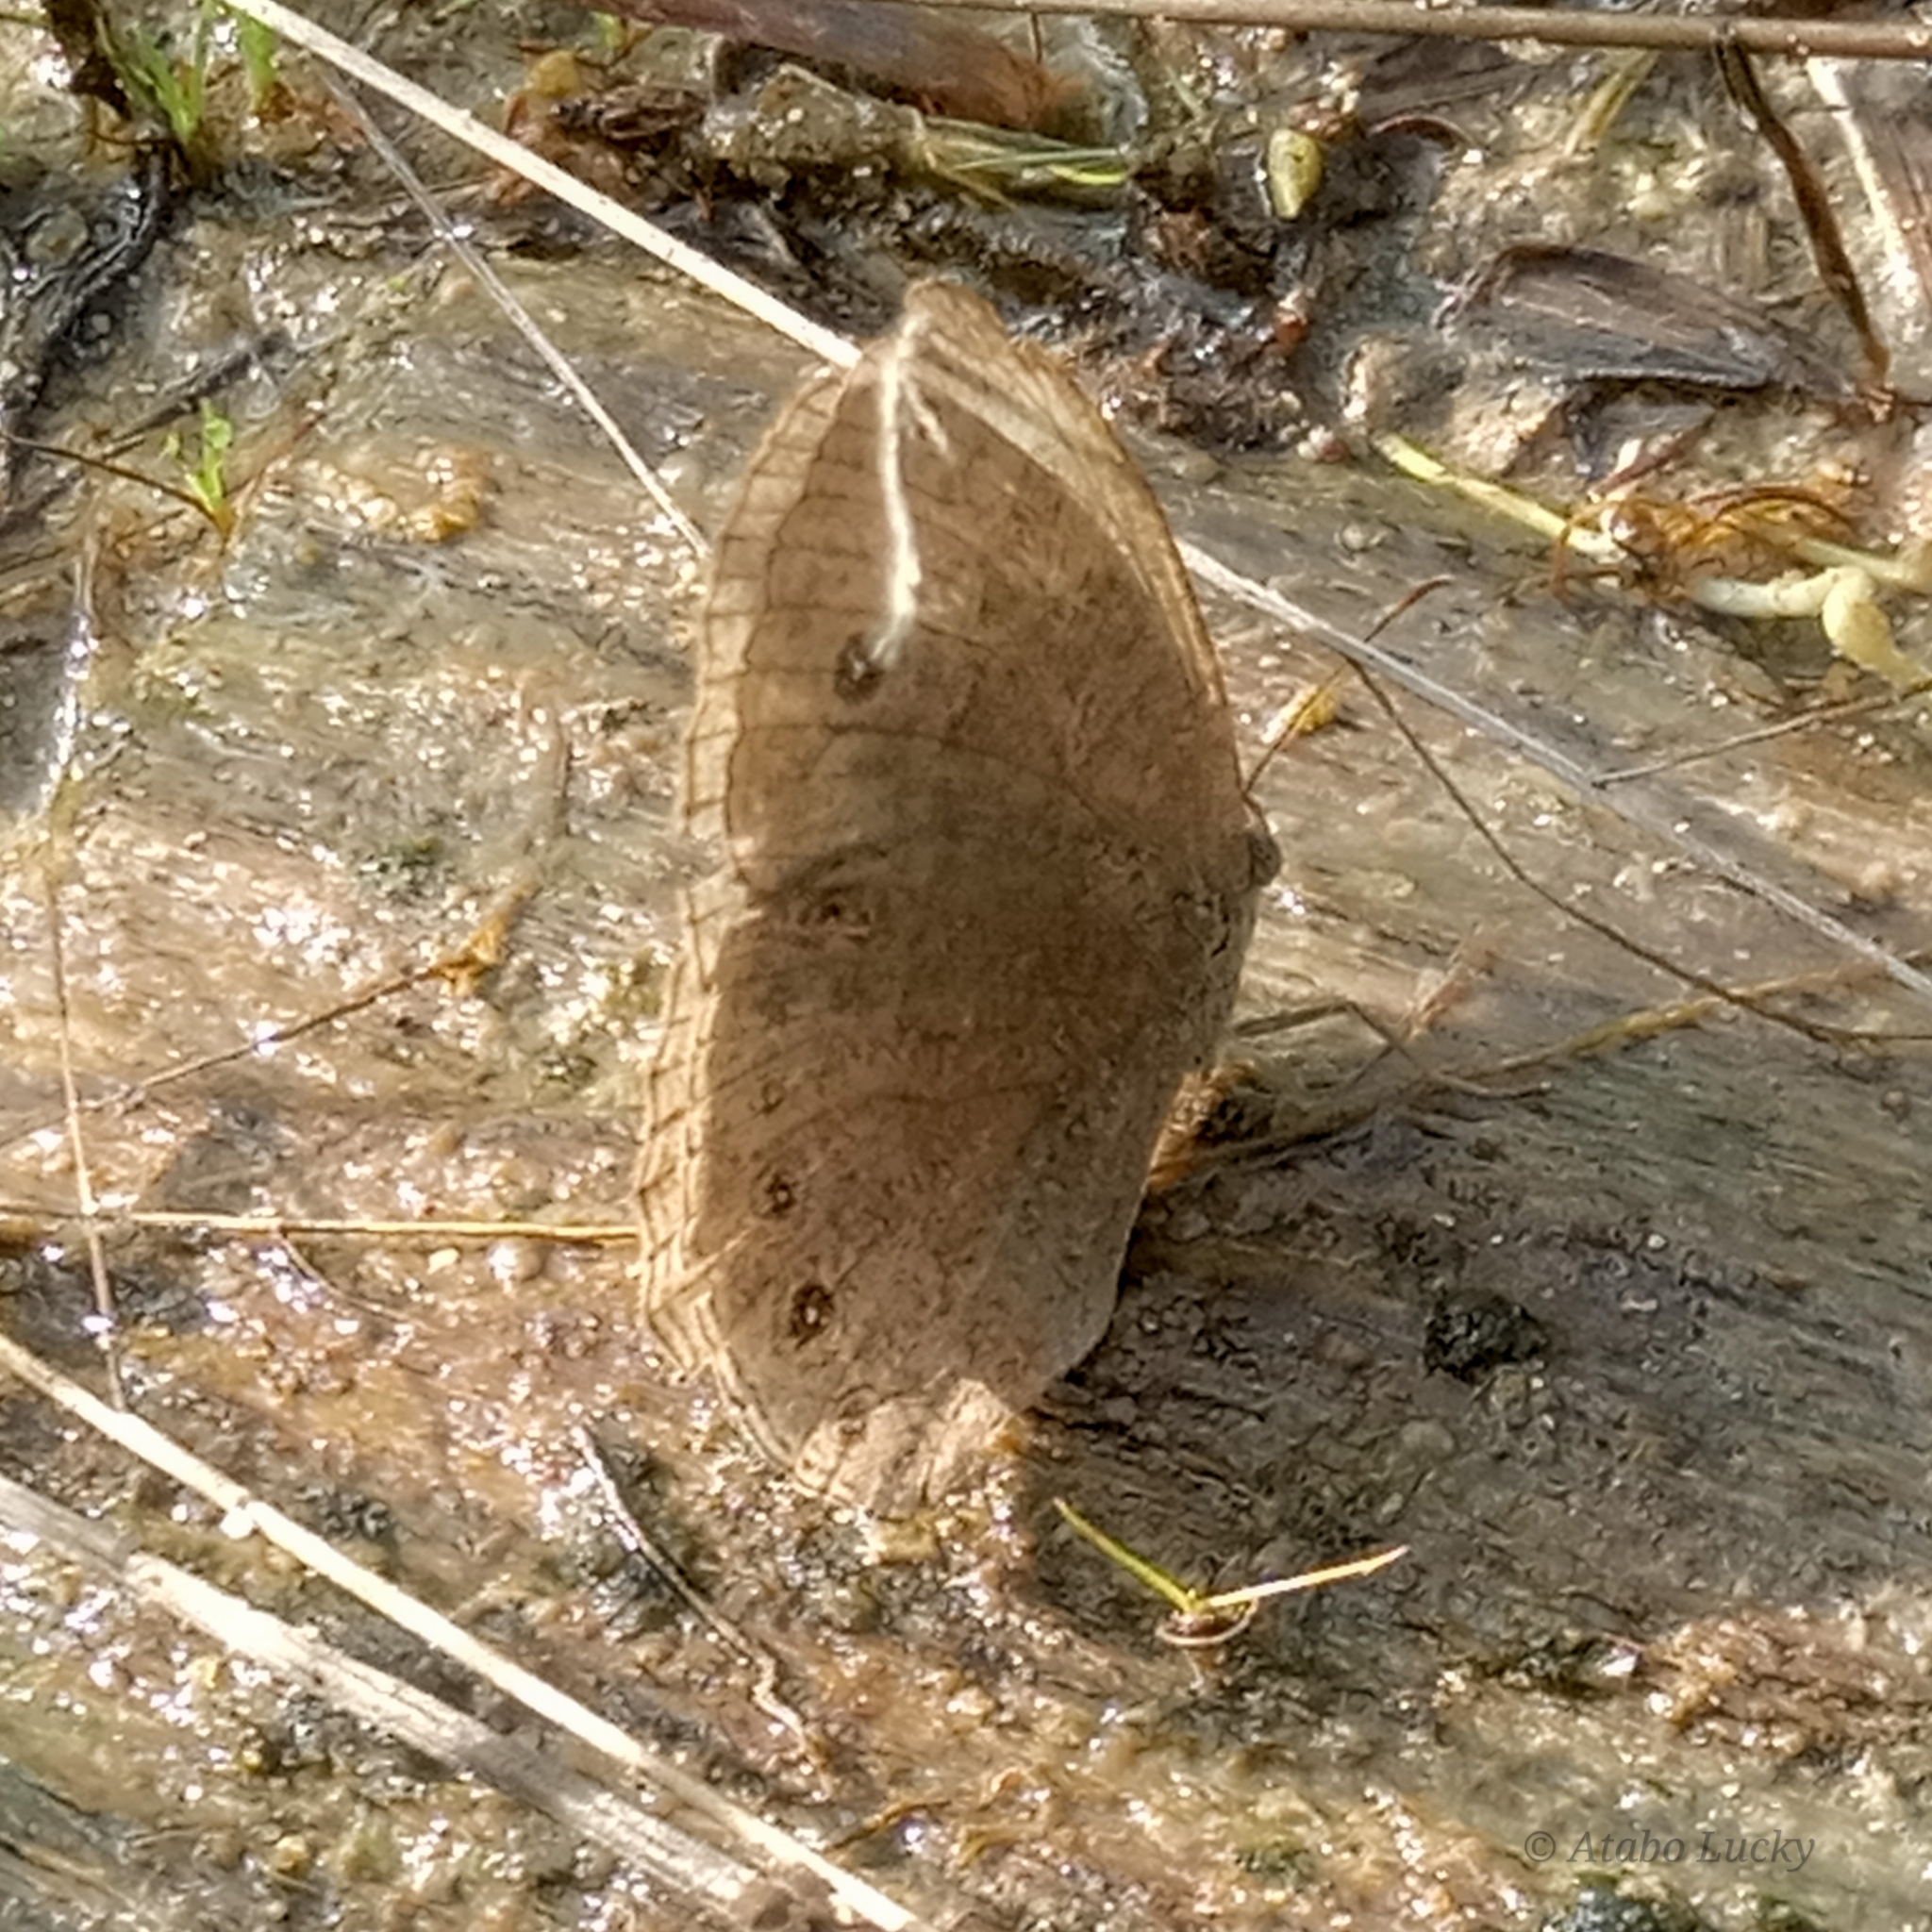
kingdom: Animalia
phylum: Arthropoda
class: Insecta
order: Lepidoptera
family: Nymphalidae
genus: Mycalesis
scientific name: Mycalesis vulgaris
